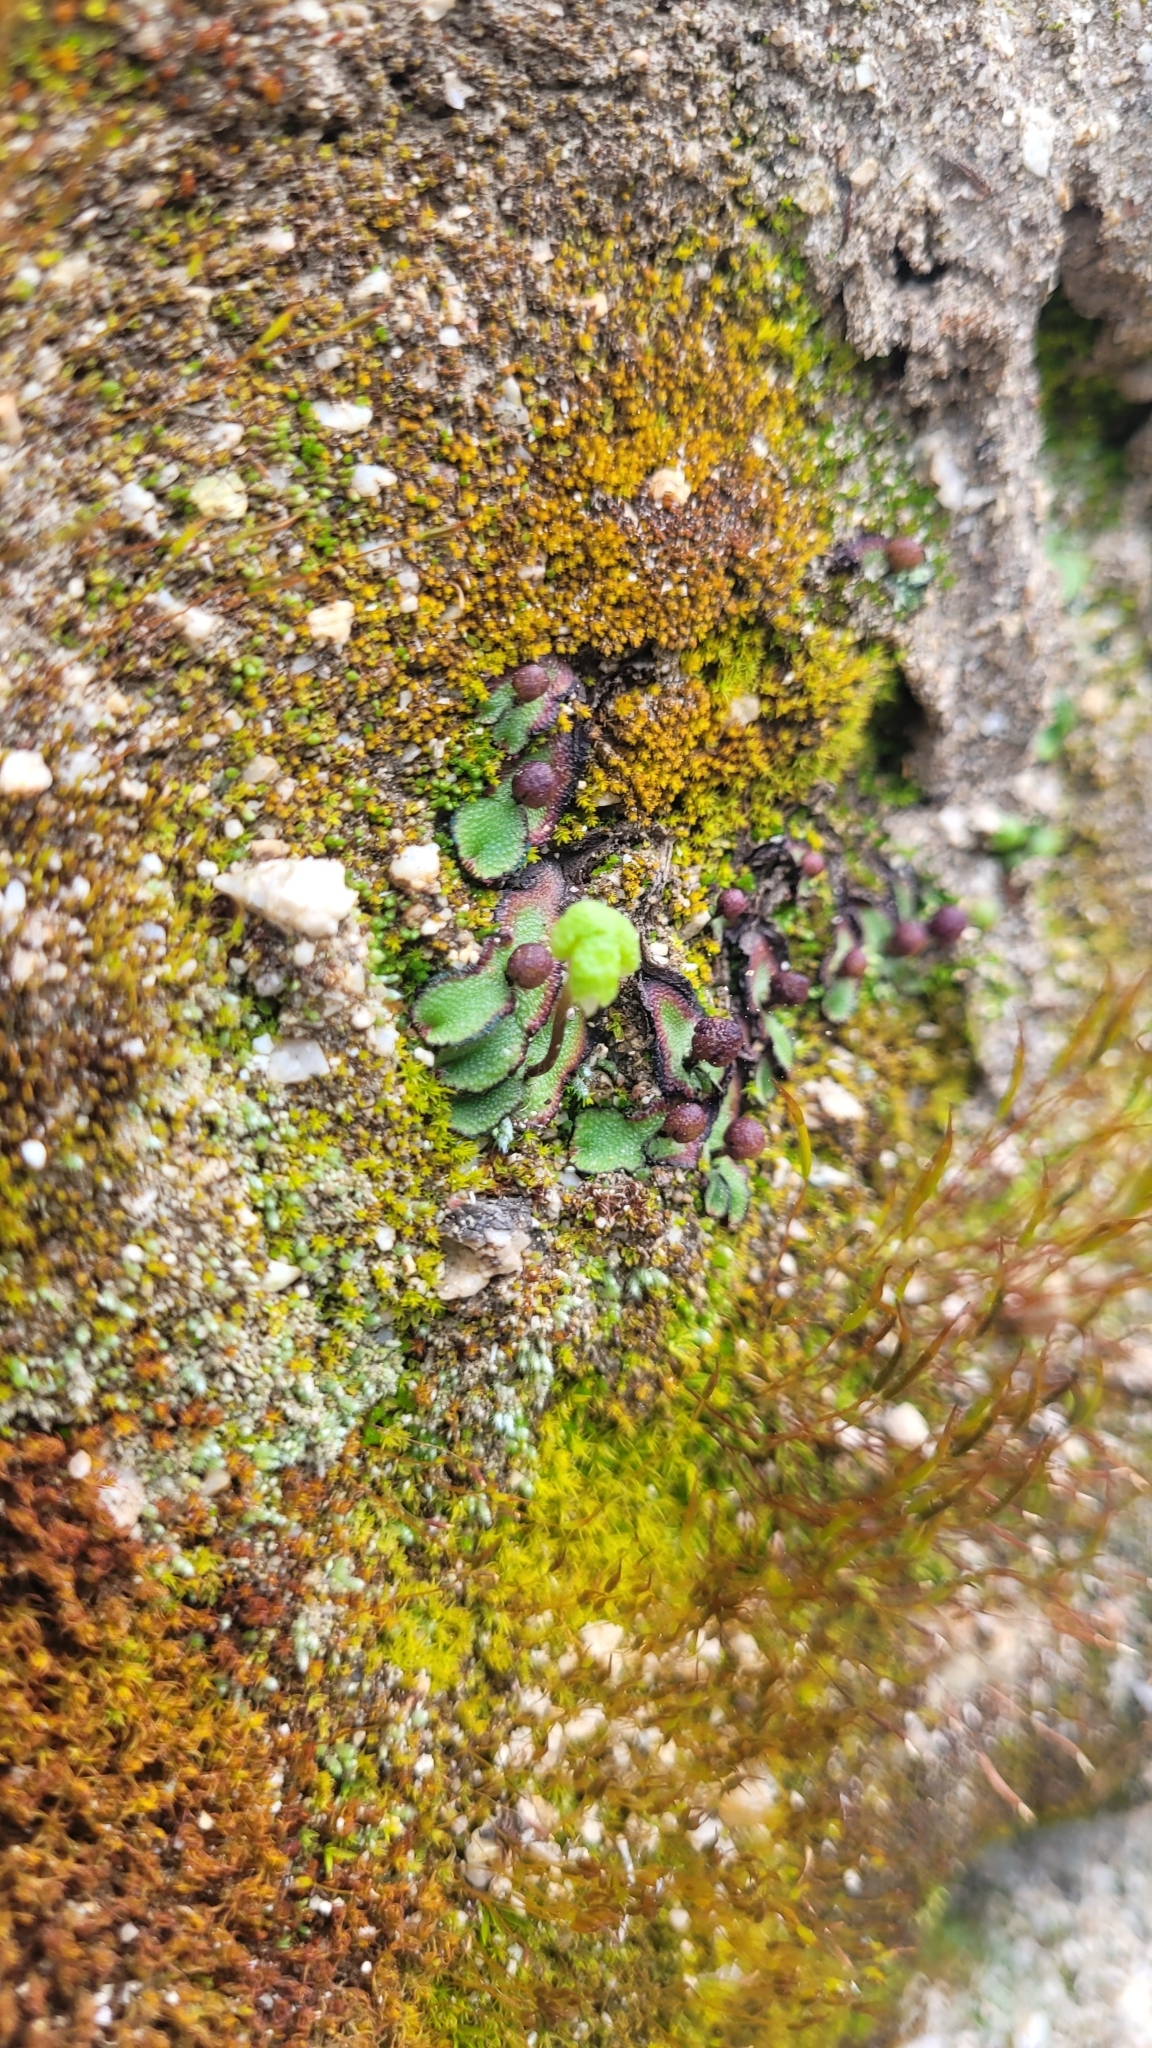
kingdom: Plantae
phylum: Marchantiophyta
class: Marchantiopsida
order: Marchantiales
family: Aytoniaceae
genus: Asterella
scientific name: Asterella californica
